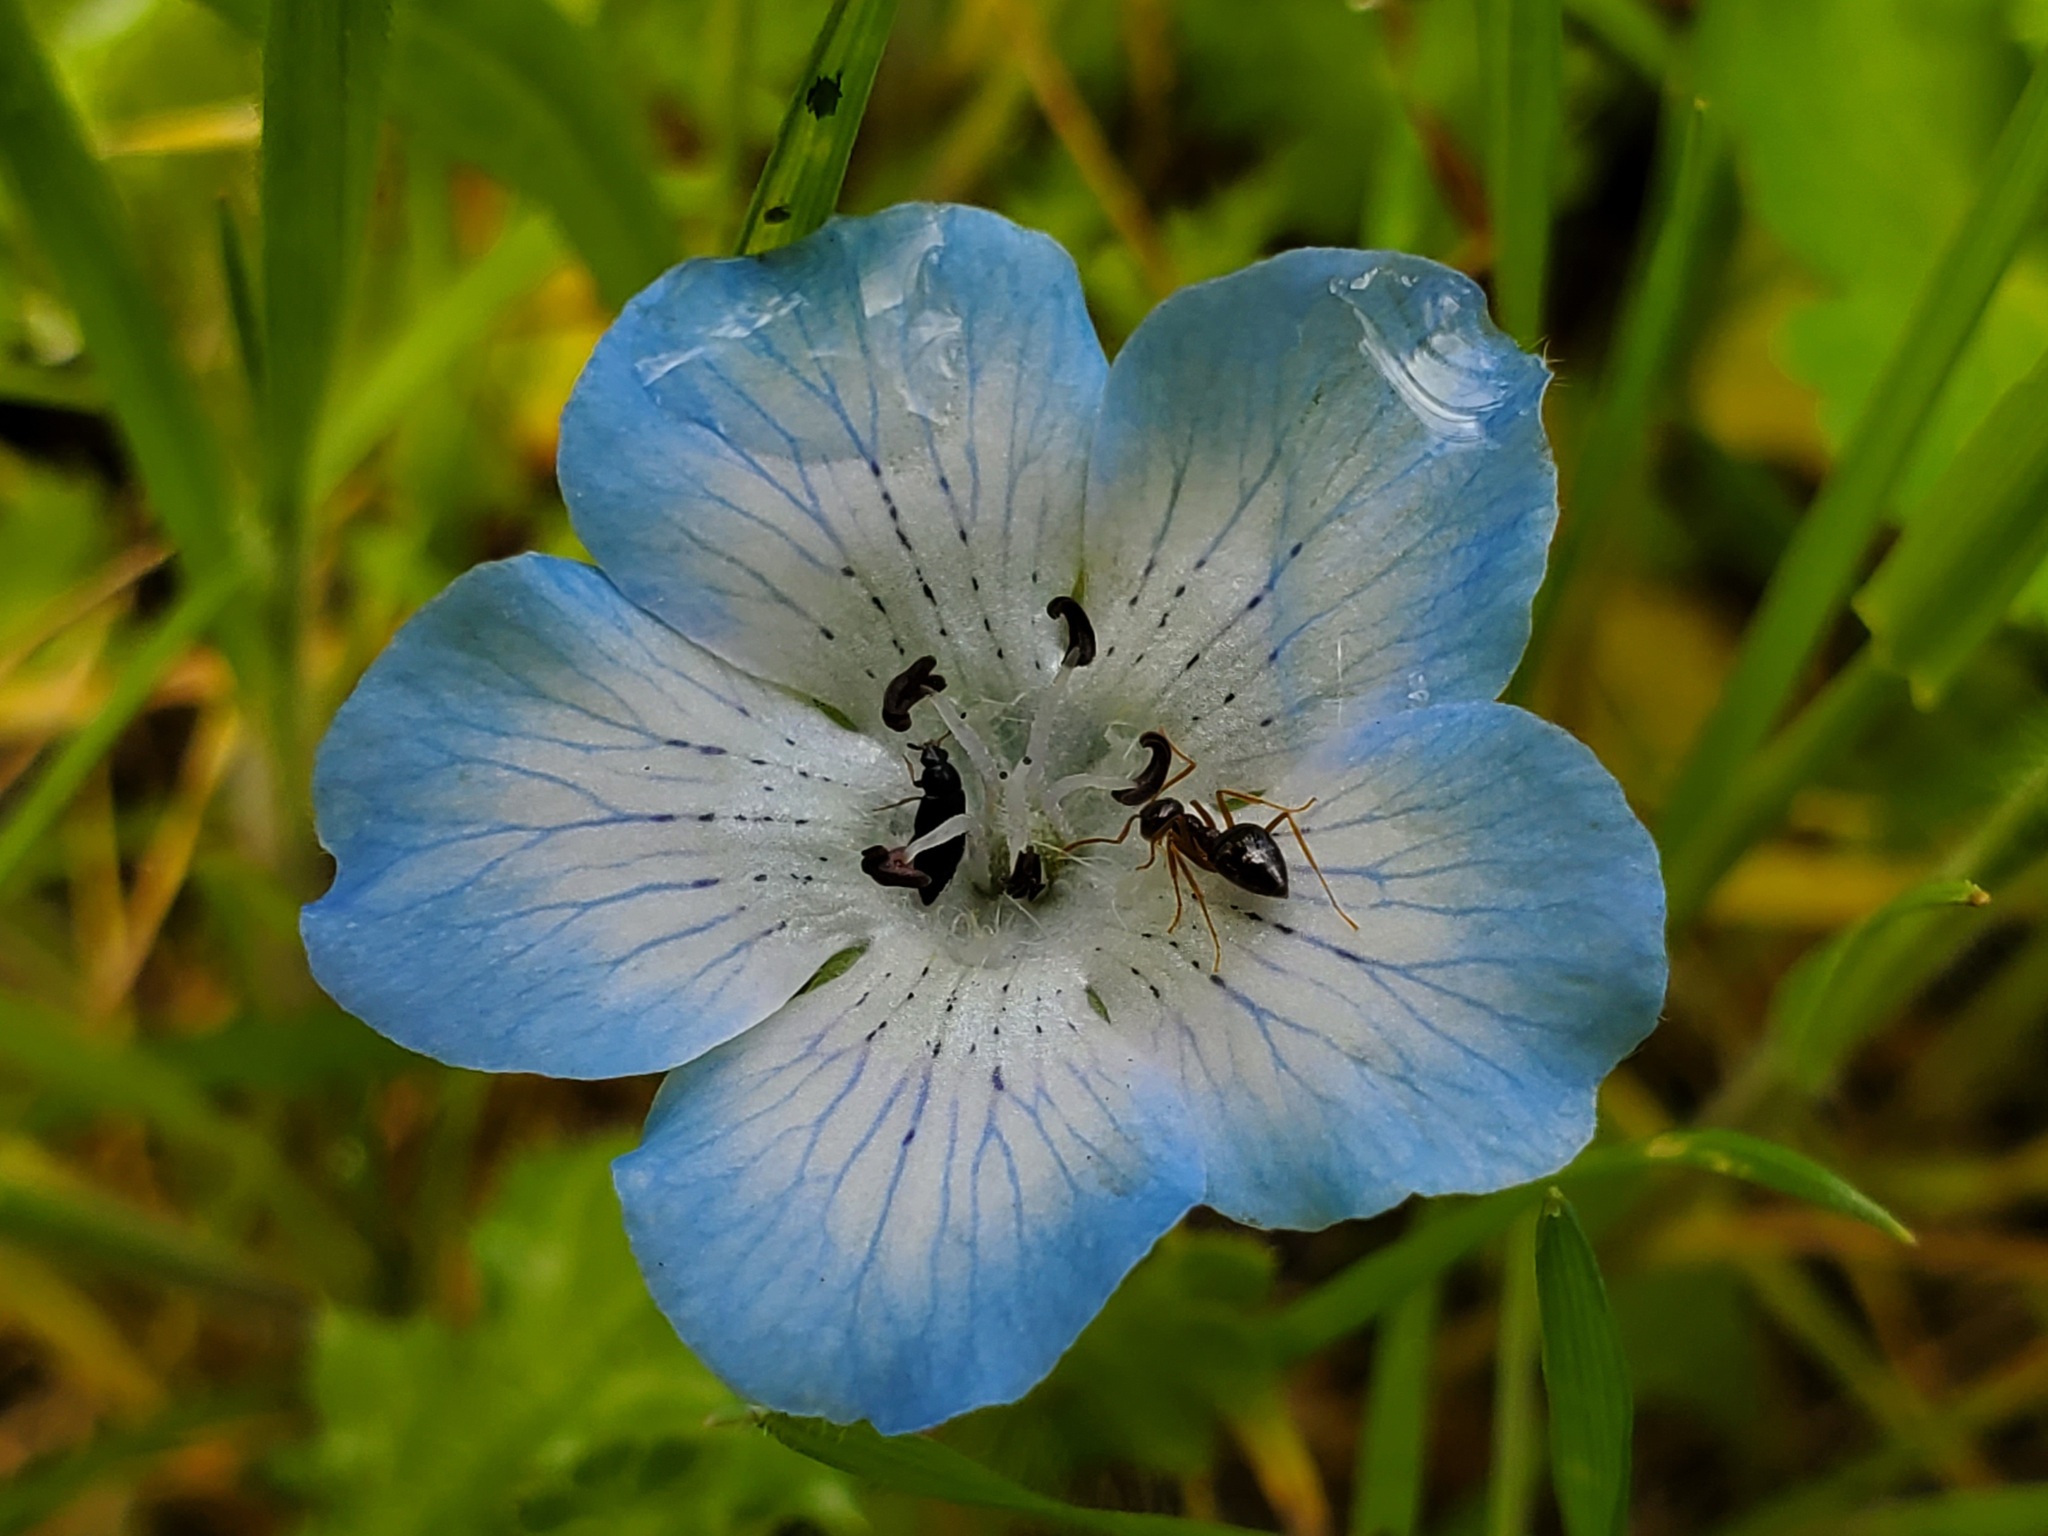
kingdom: Animalia
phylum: Arthropoda
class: Insecta
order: Hymenoptera
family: Formicidae
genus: Prenolepis
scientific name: Prenolepis imparis
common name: Small honey ant
